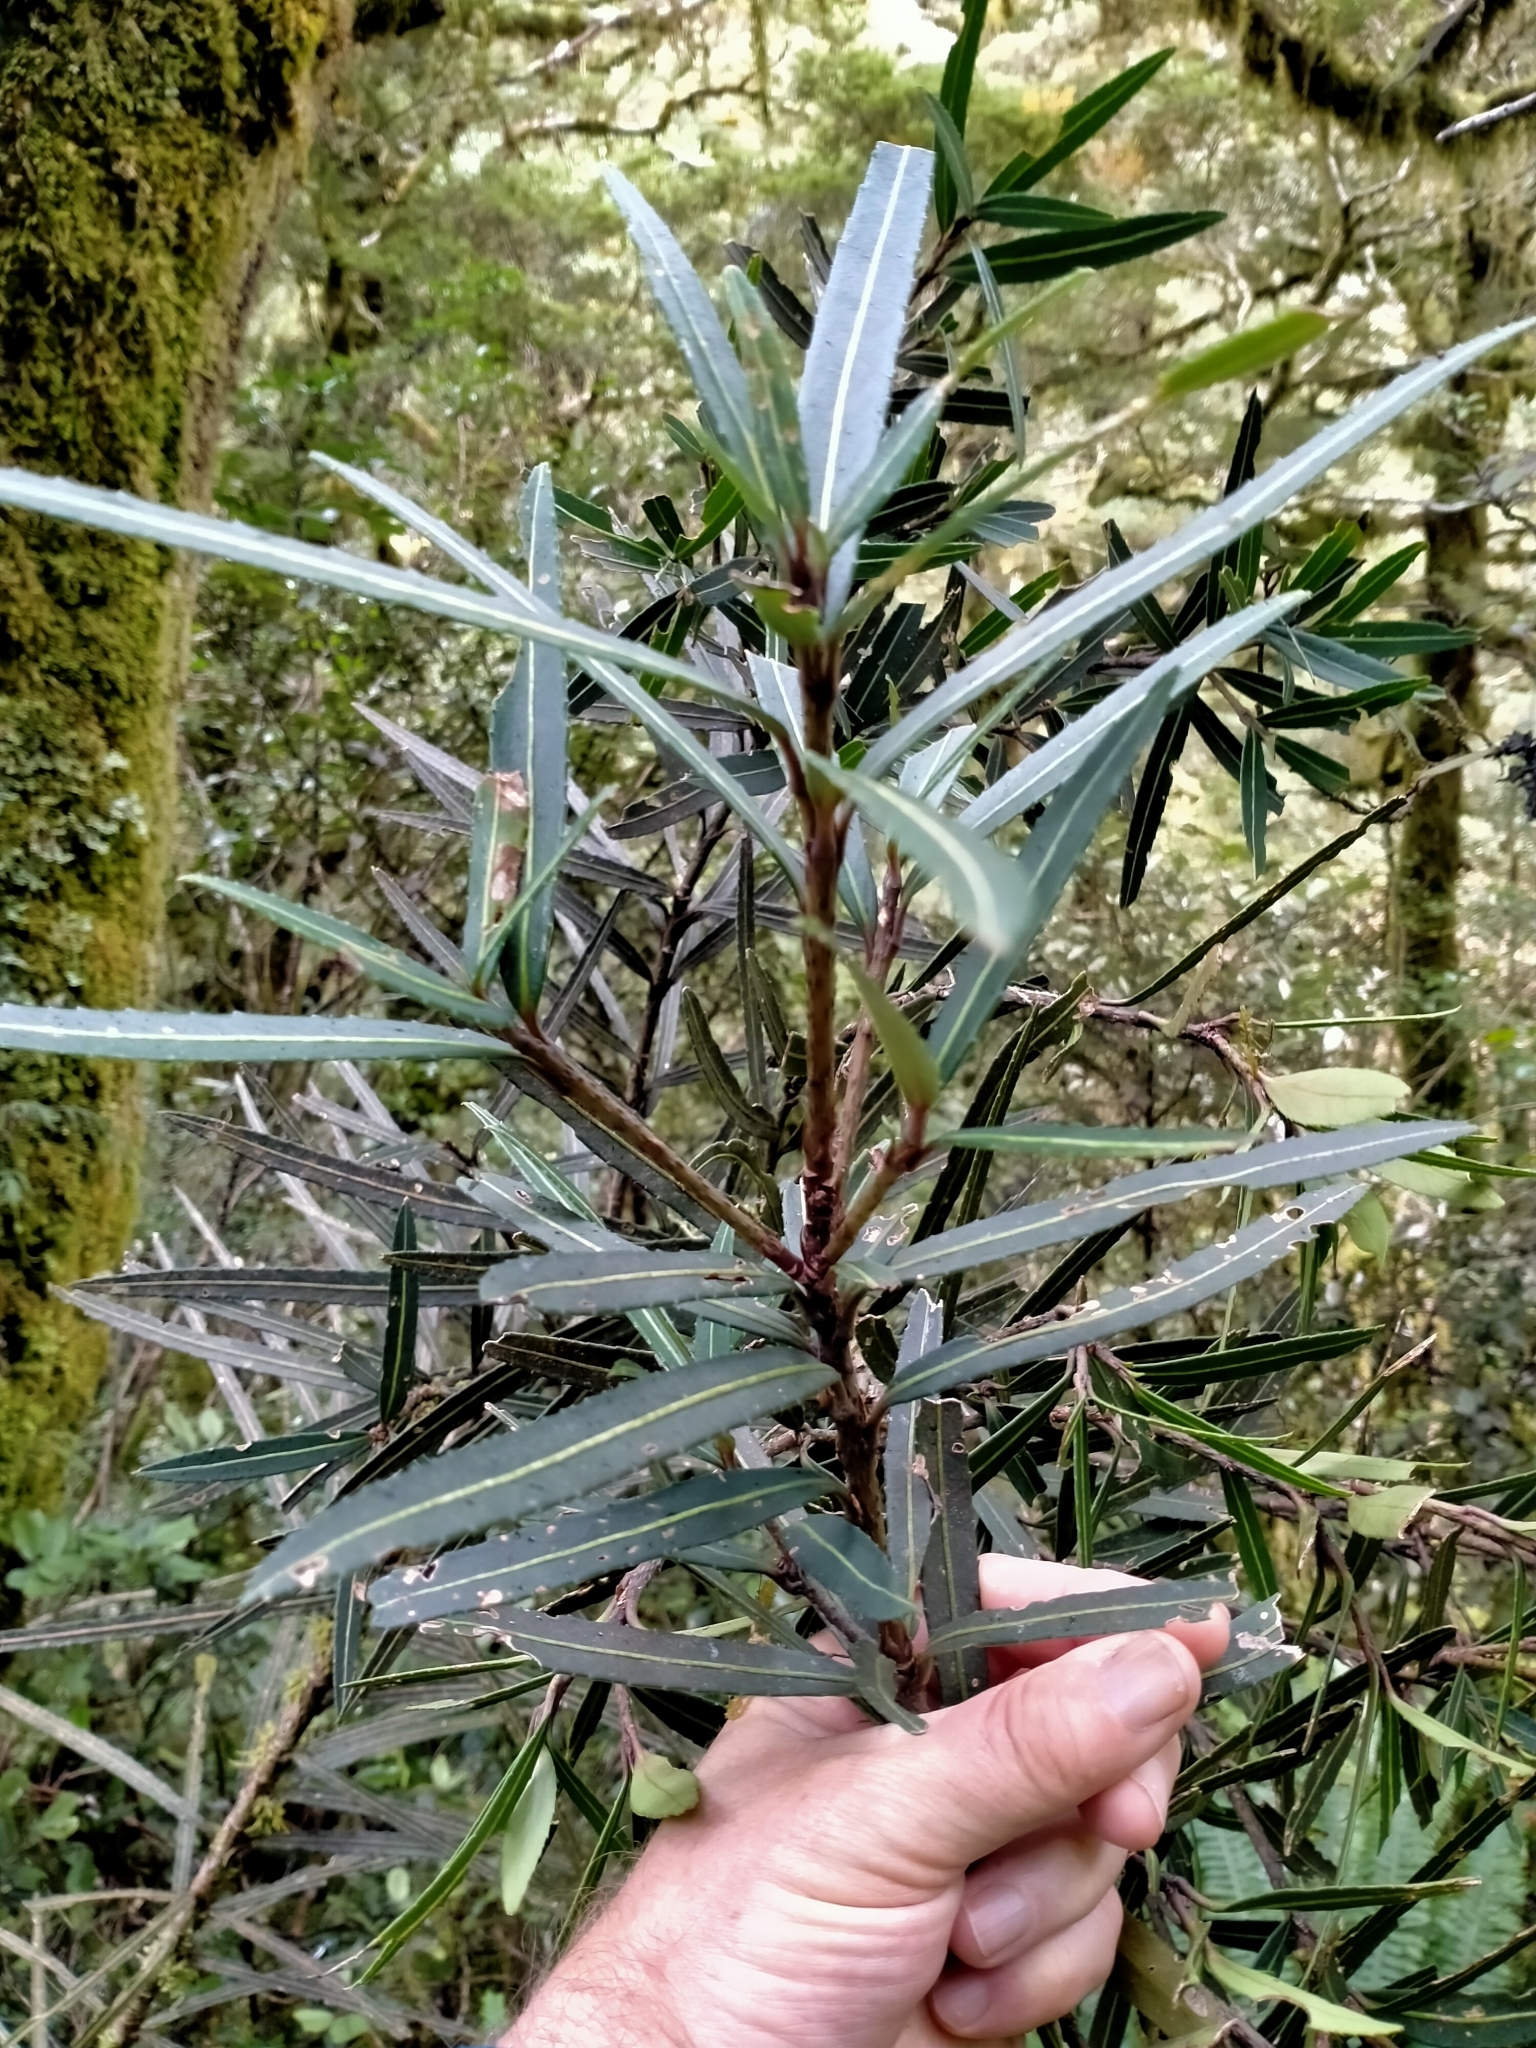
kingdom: Plantae
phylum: Tracheophyta
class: Magnoliopsida
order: Apiales
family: Araliaceae
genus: Pseudopanax
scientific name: Pseudopanax linearis
